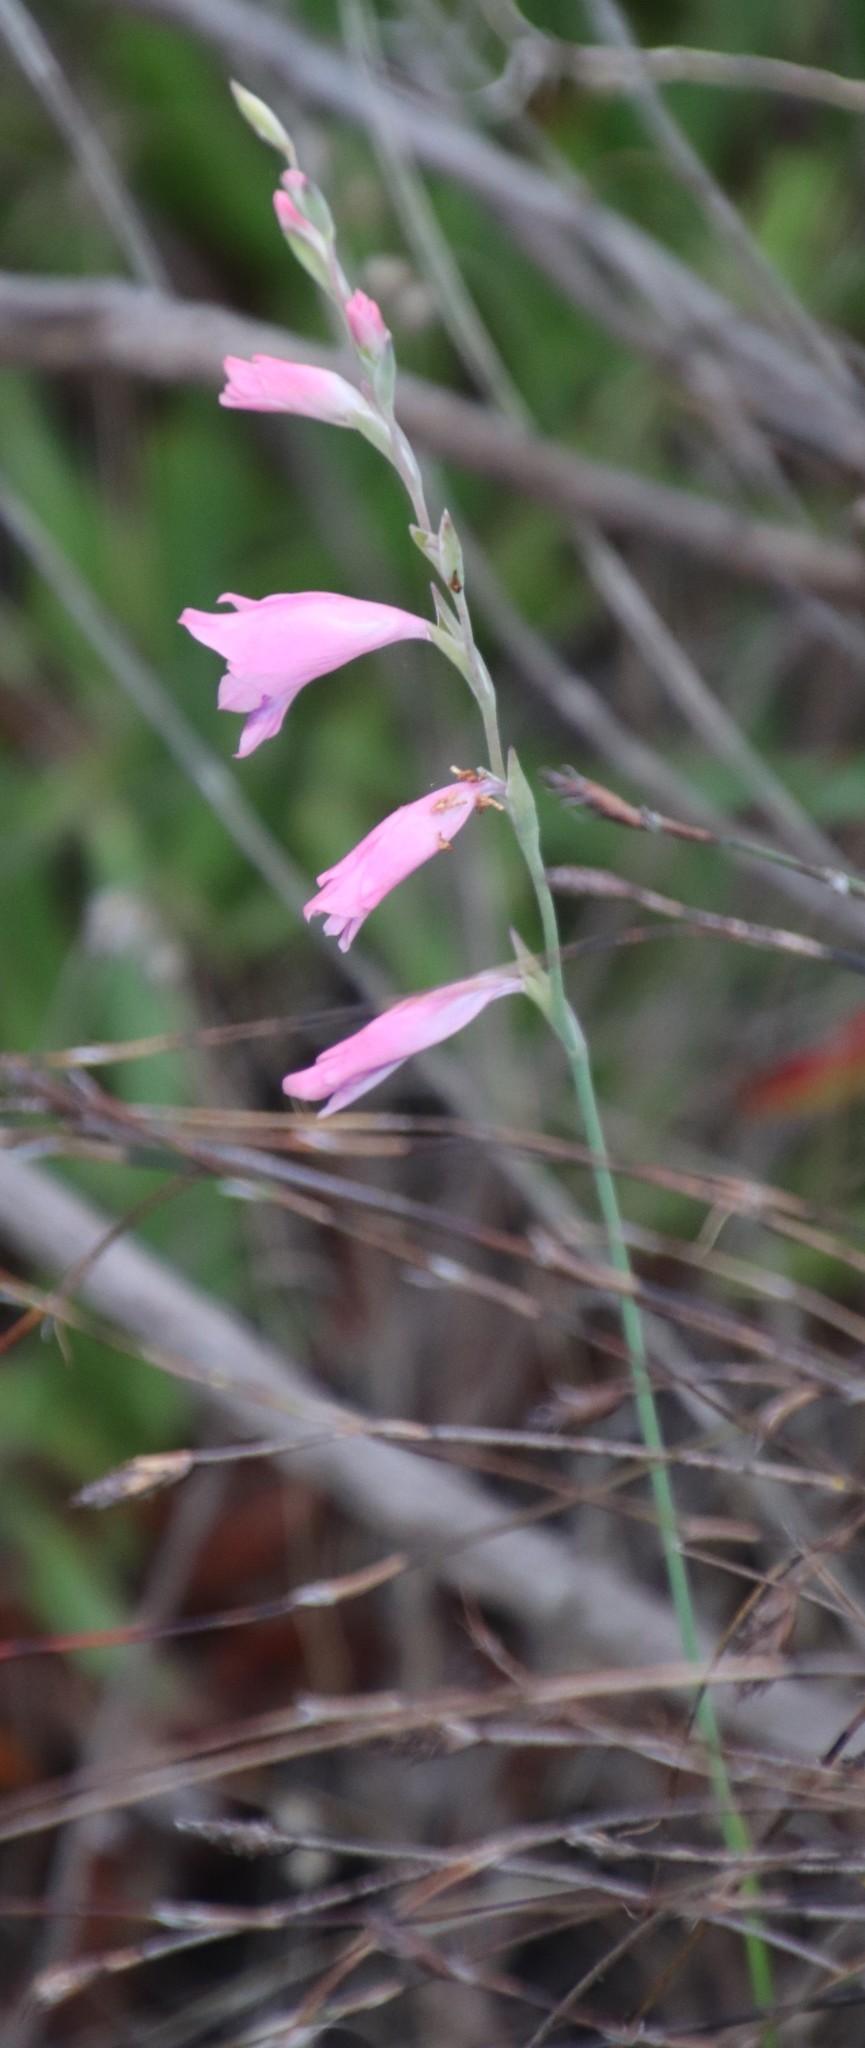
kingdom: Plantae
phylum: Tracheophyta
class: Liliopsida
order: Asparagales
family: Iridaceae
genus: Gladiolus
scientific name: Gladiolus brevifolius
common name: March pypie
